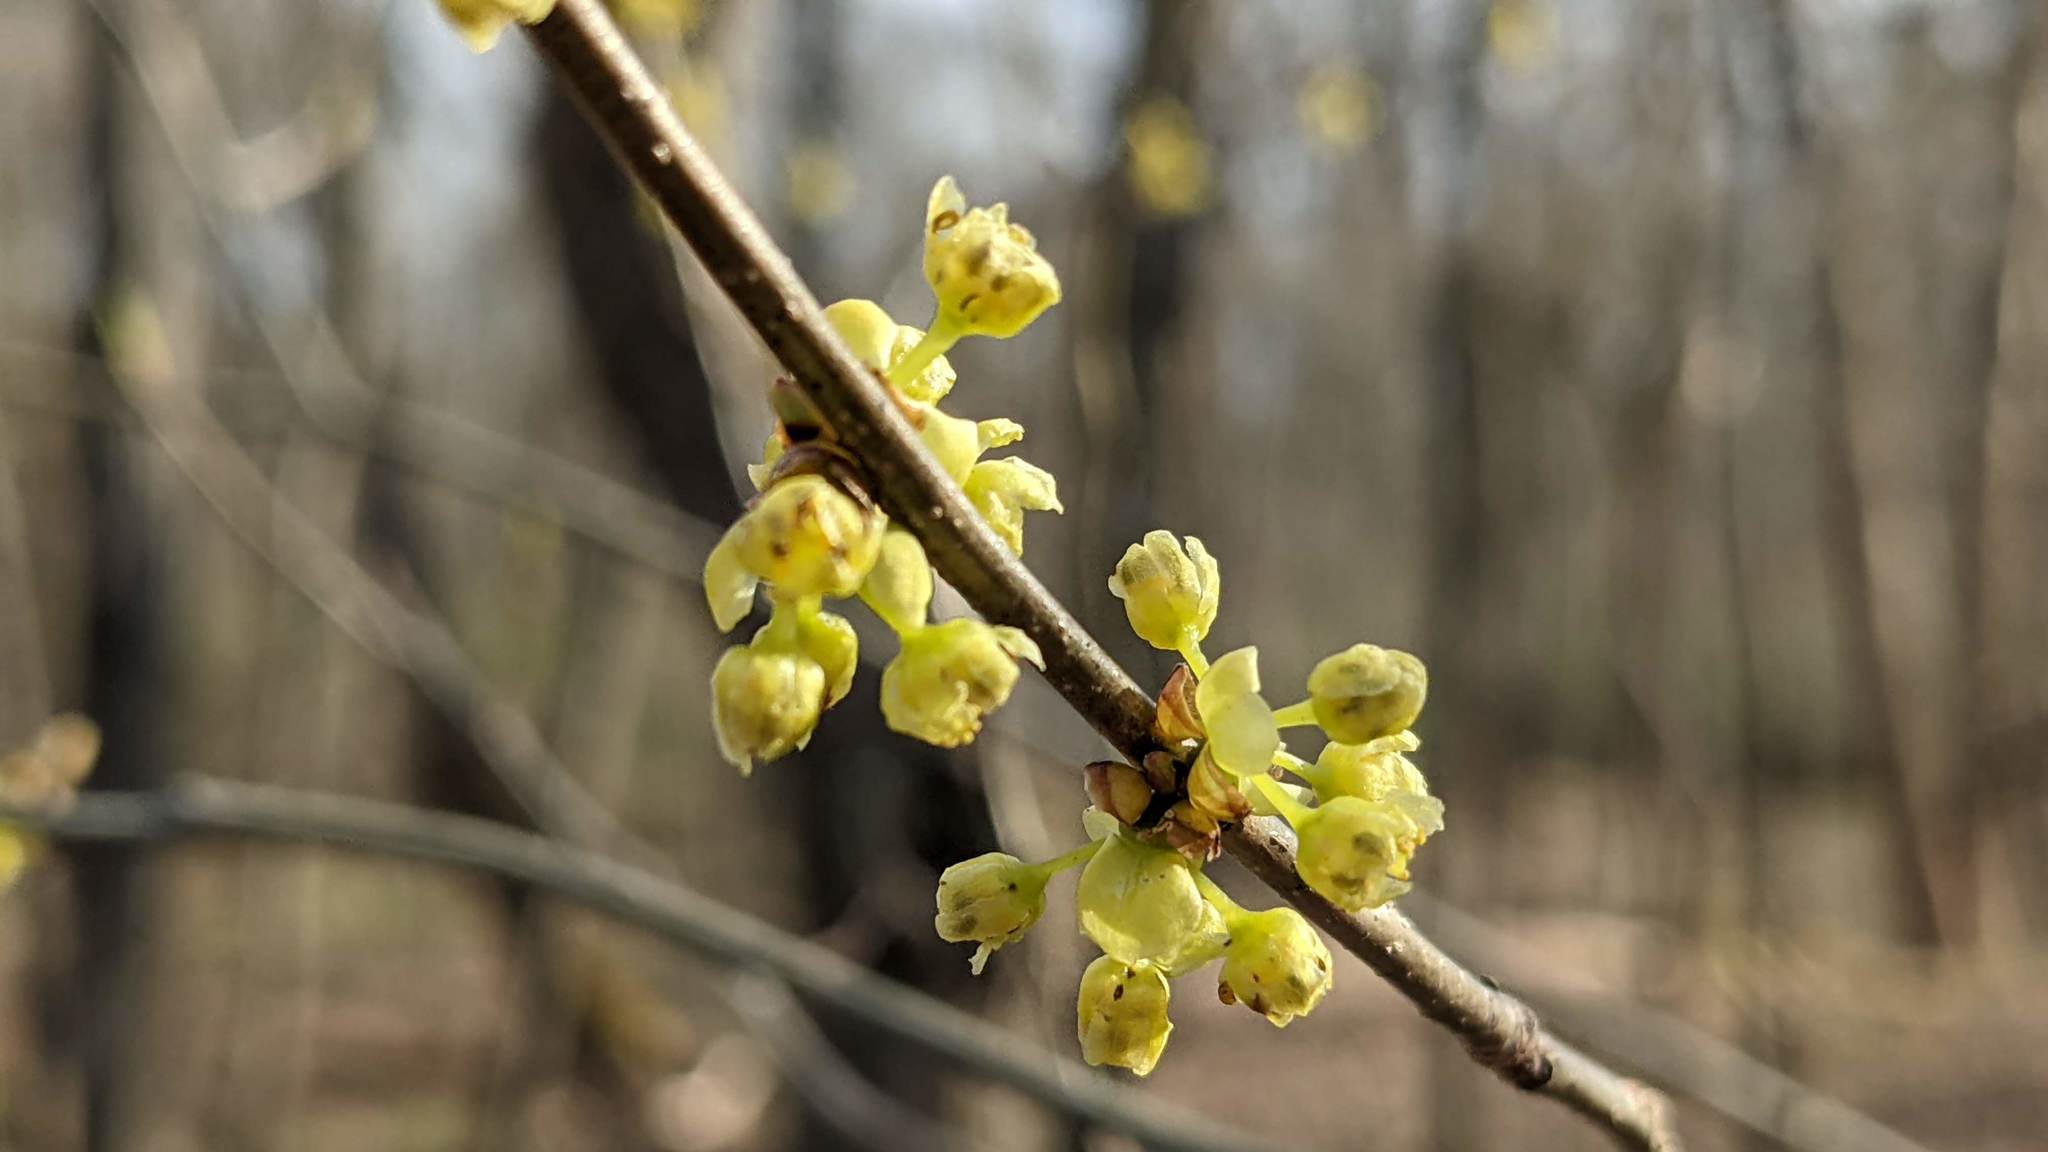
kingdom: Plantae
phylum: Tracheophyta
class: Magnoliopsida
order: Laurales
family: Lauraceae
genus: Lindera
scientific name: Lindera benzoin
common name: Spicebush
